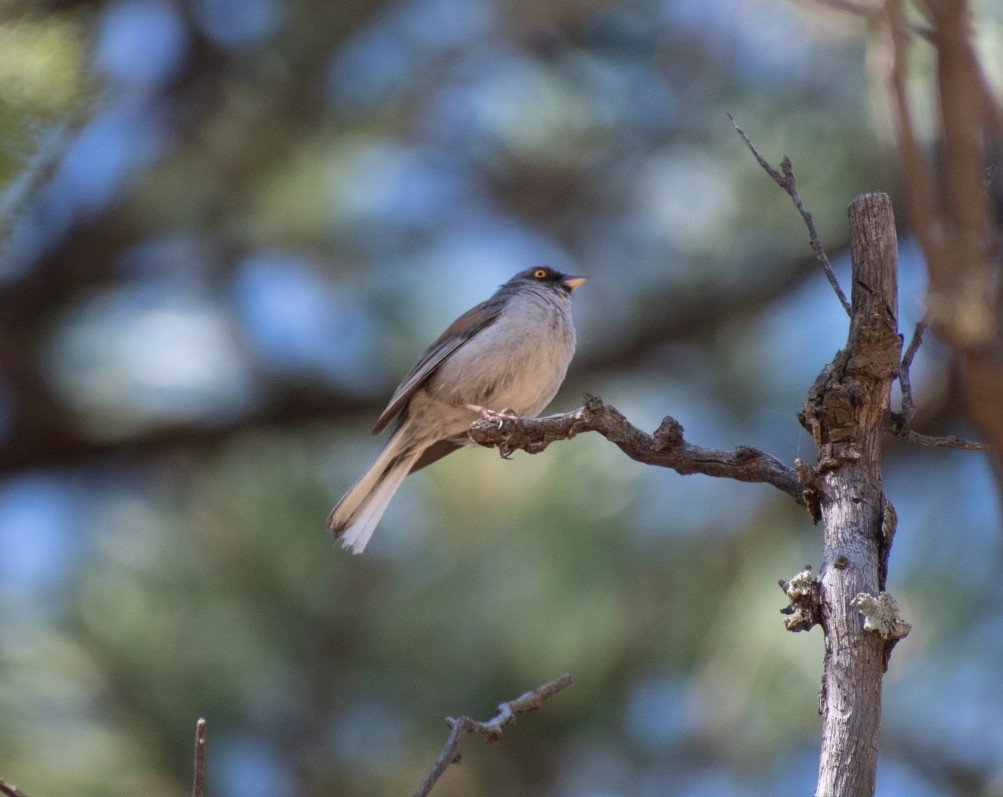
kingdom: Animalia
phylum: Chordata
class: Aves
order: Passeriformes
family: Passerellidae
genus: Junco
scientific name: Junco phaeonotus
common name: Yellow-eyed junco
